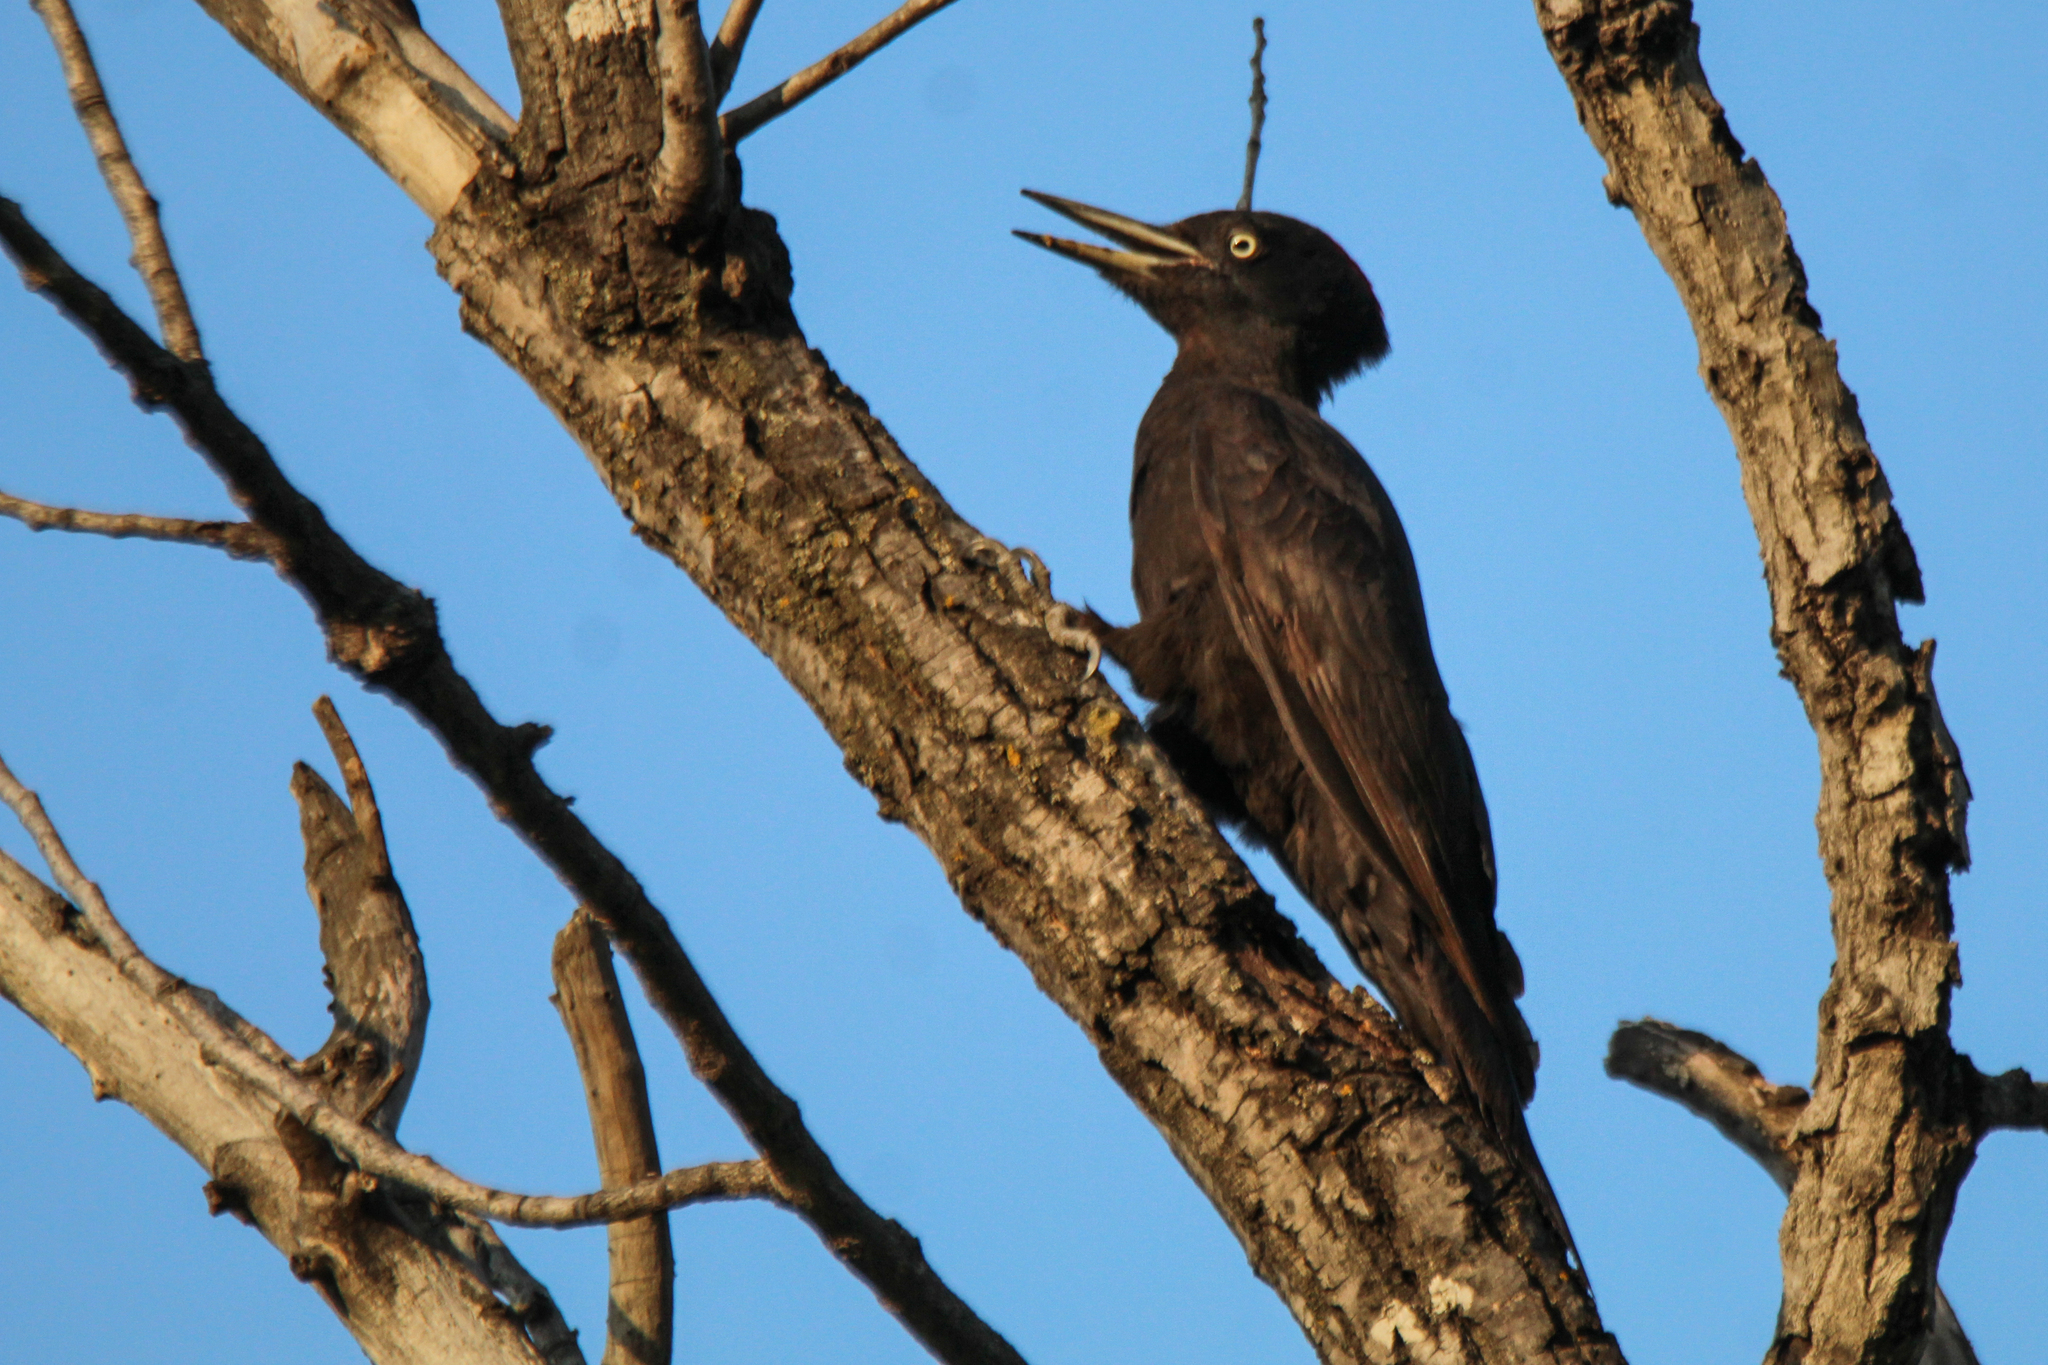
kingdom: Animalia
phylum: Chordata
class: Aves
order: Piciformes
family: Picidae
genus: Dryocopus
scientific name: Dryocopus martius
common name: Black woodpecker
